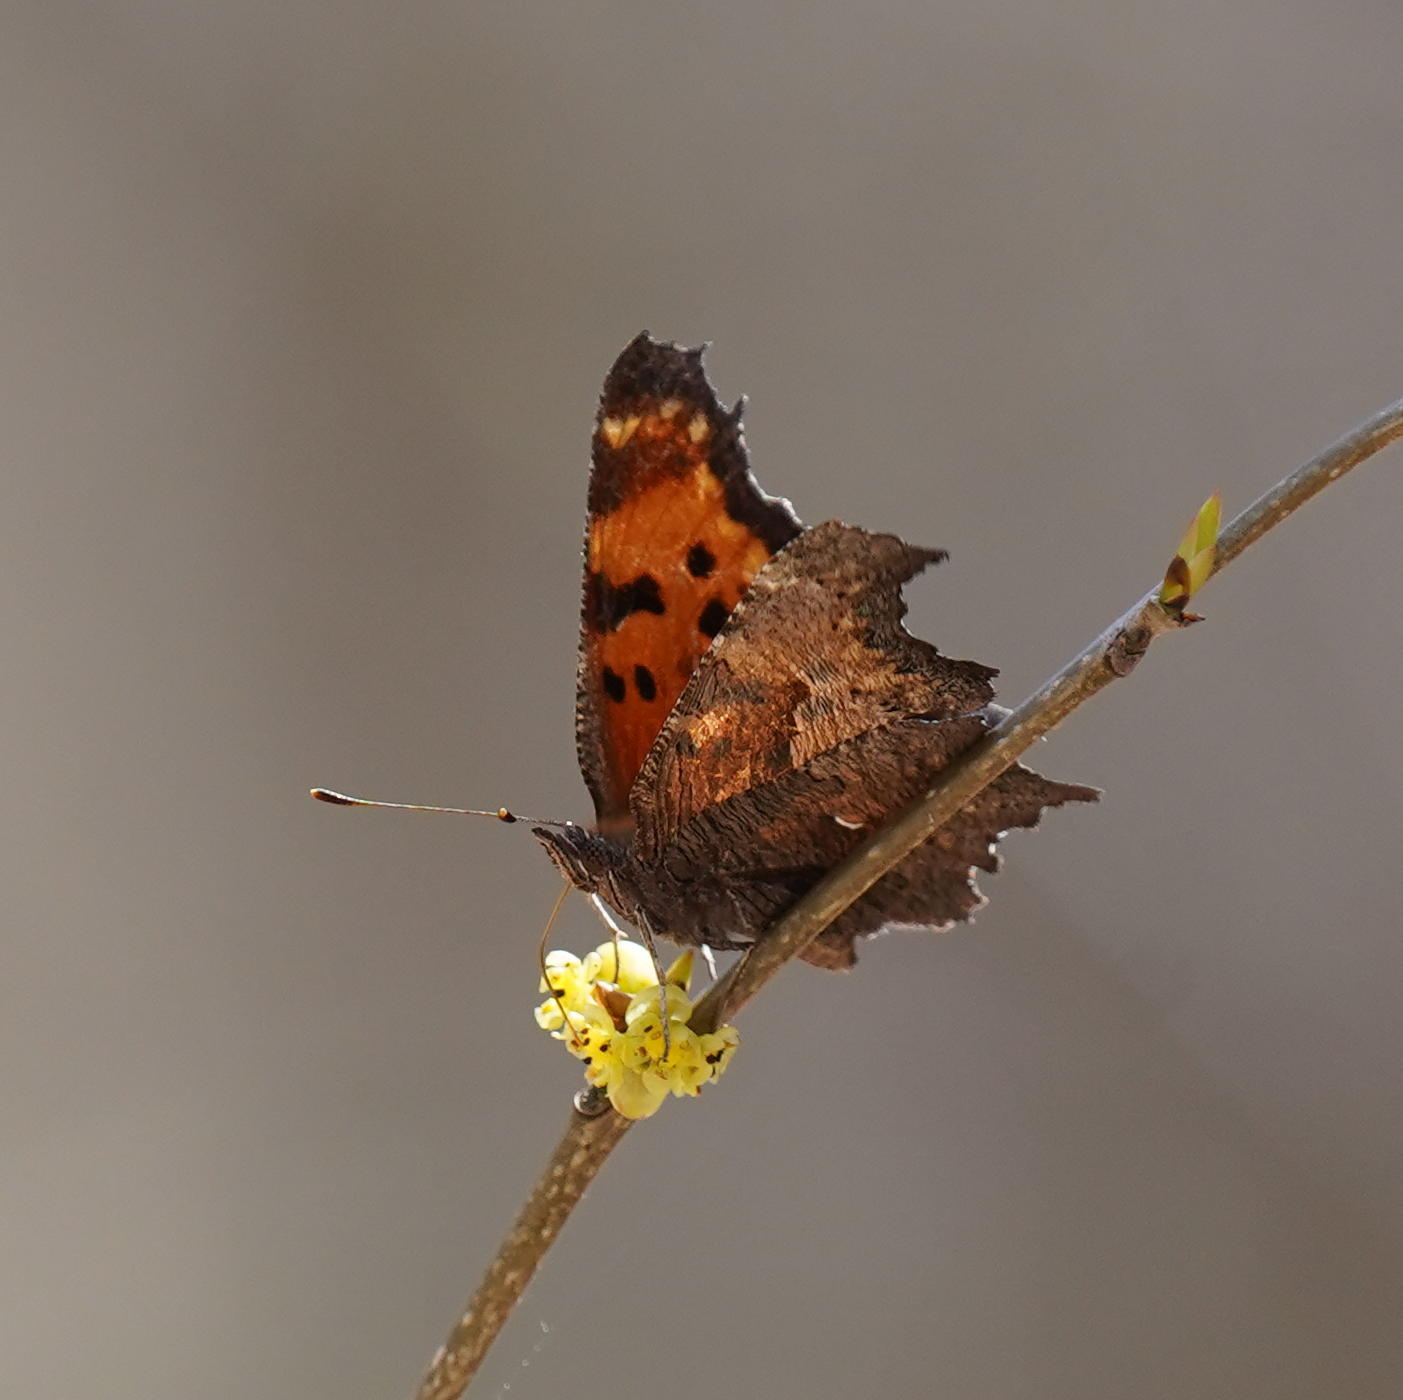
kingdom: Animalia
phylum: Arthropoda
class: Insecta
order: Lepidoptera
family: Nymphalidae
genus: Polygonia
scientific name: Polygonia progne
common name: Gray comma
